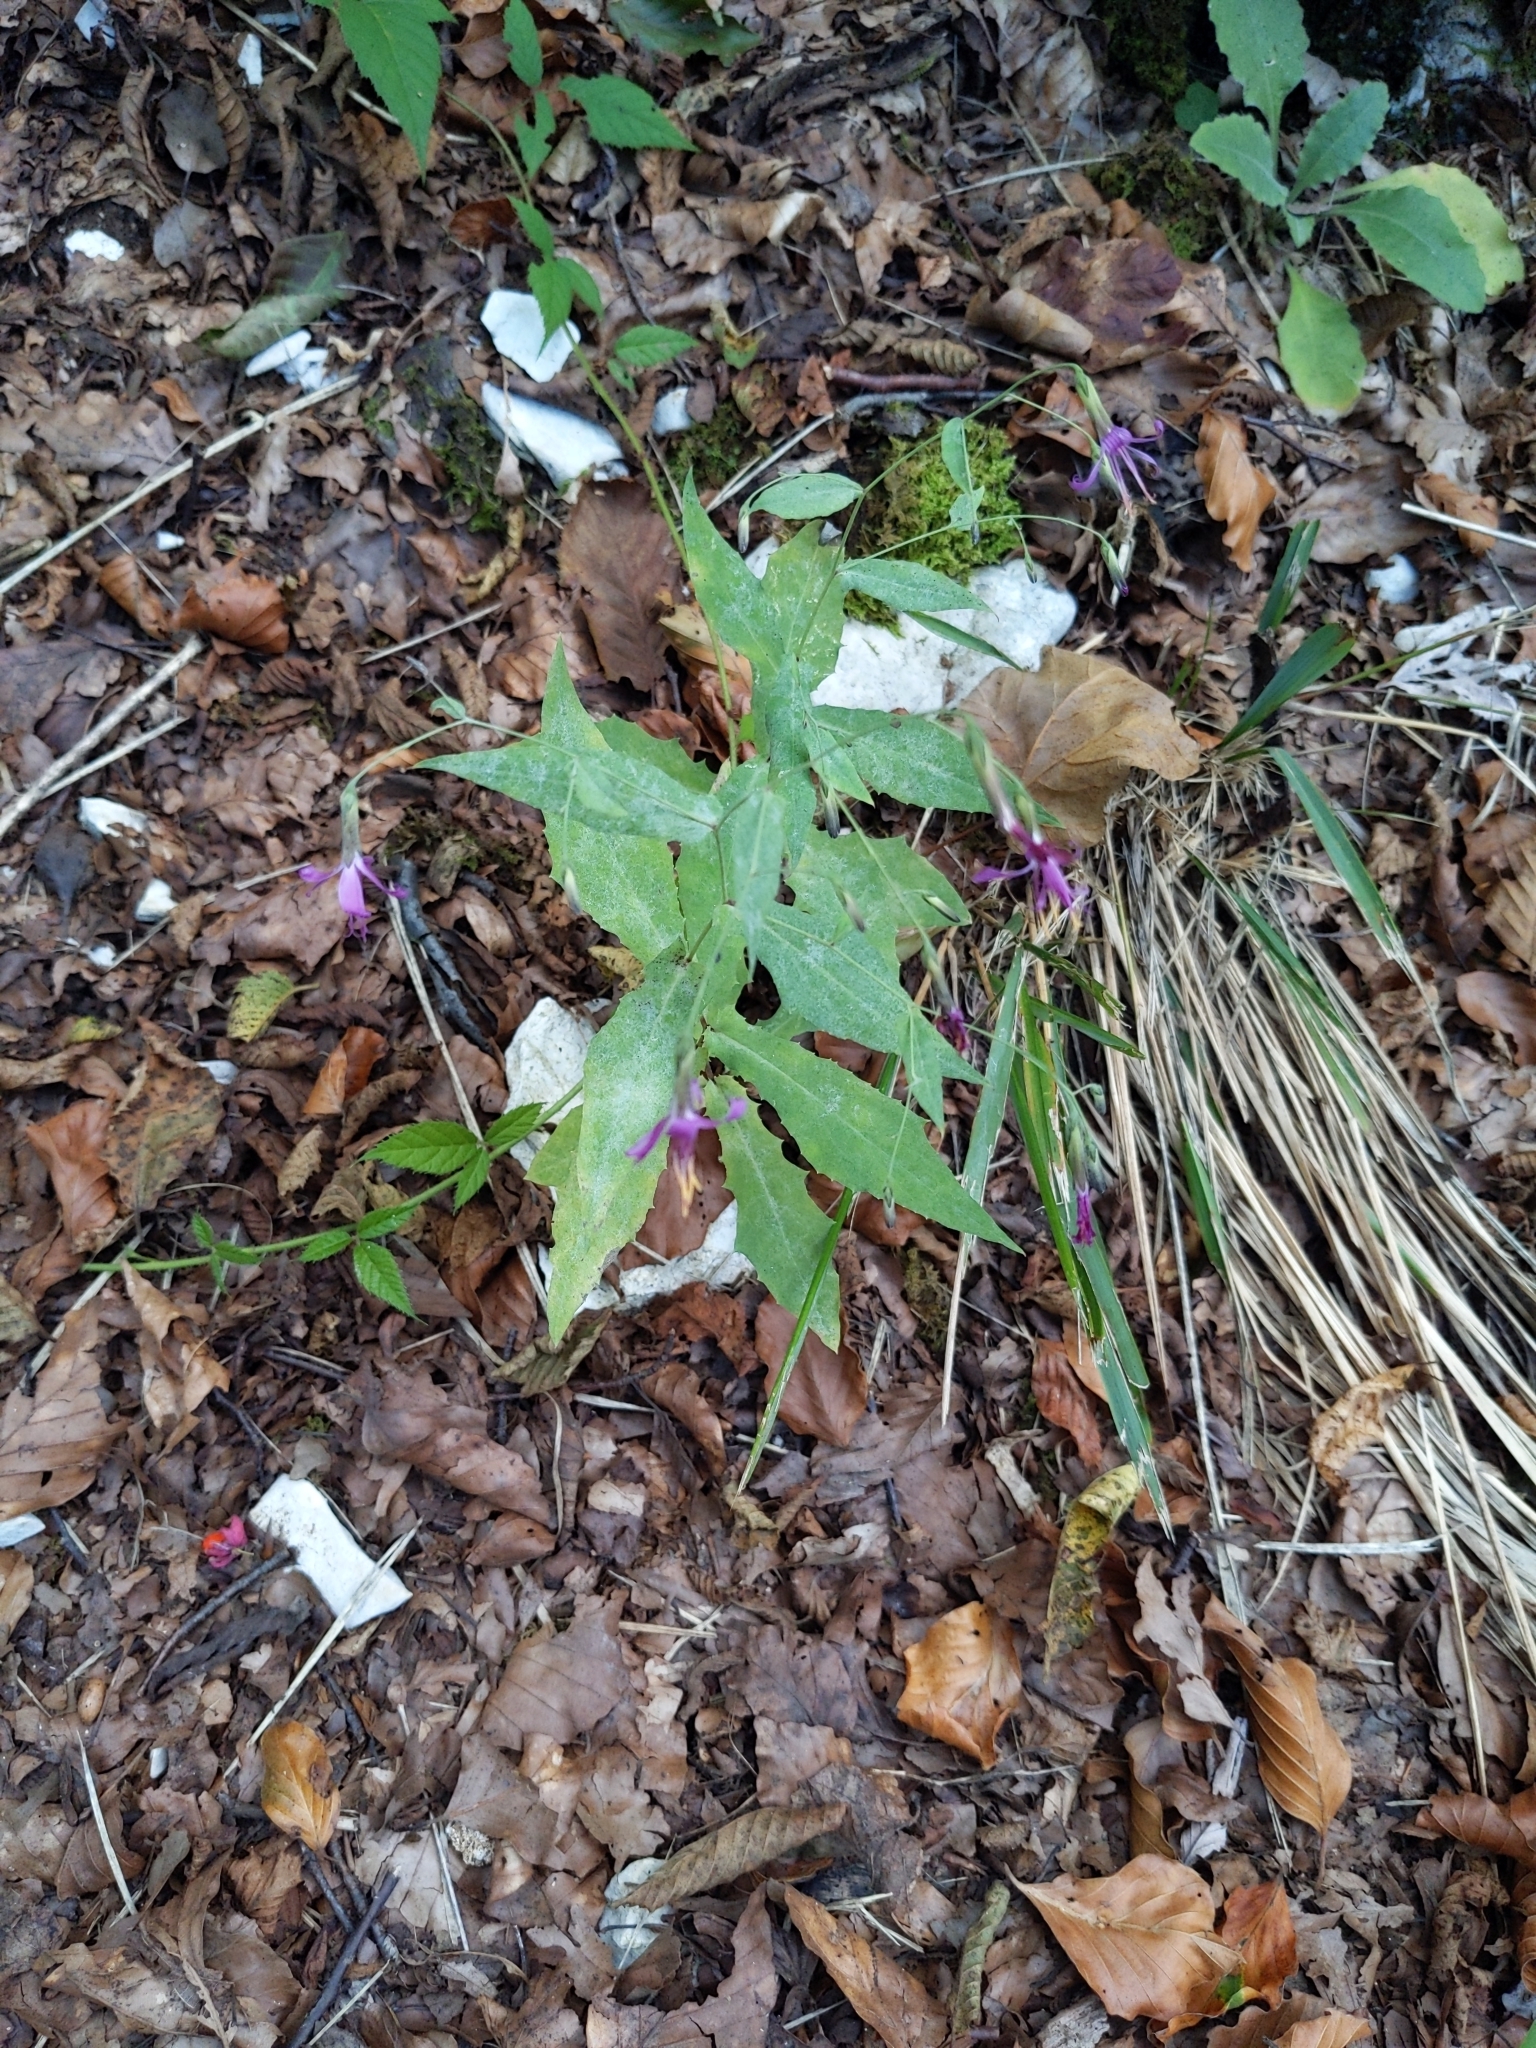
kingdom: Plantae
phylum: Tracheophyta
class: Magnoliopsida
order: Asterales
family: Asteraceae
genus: Prenanthes
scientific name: Prenanthes purpurea
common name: Purple lettuce
